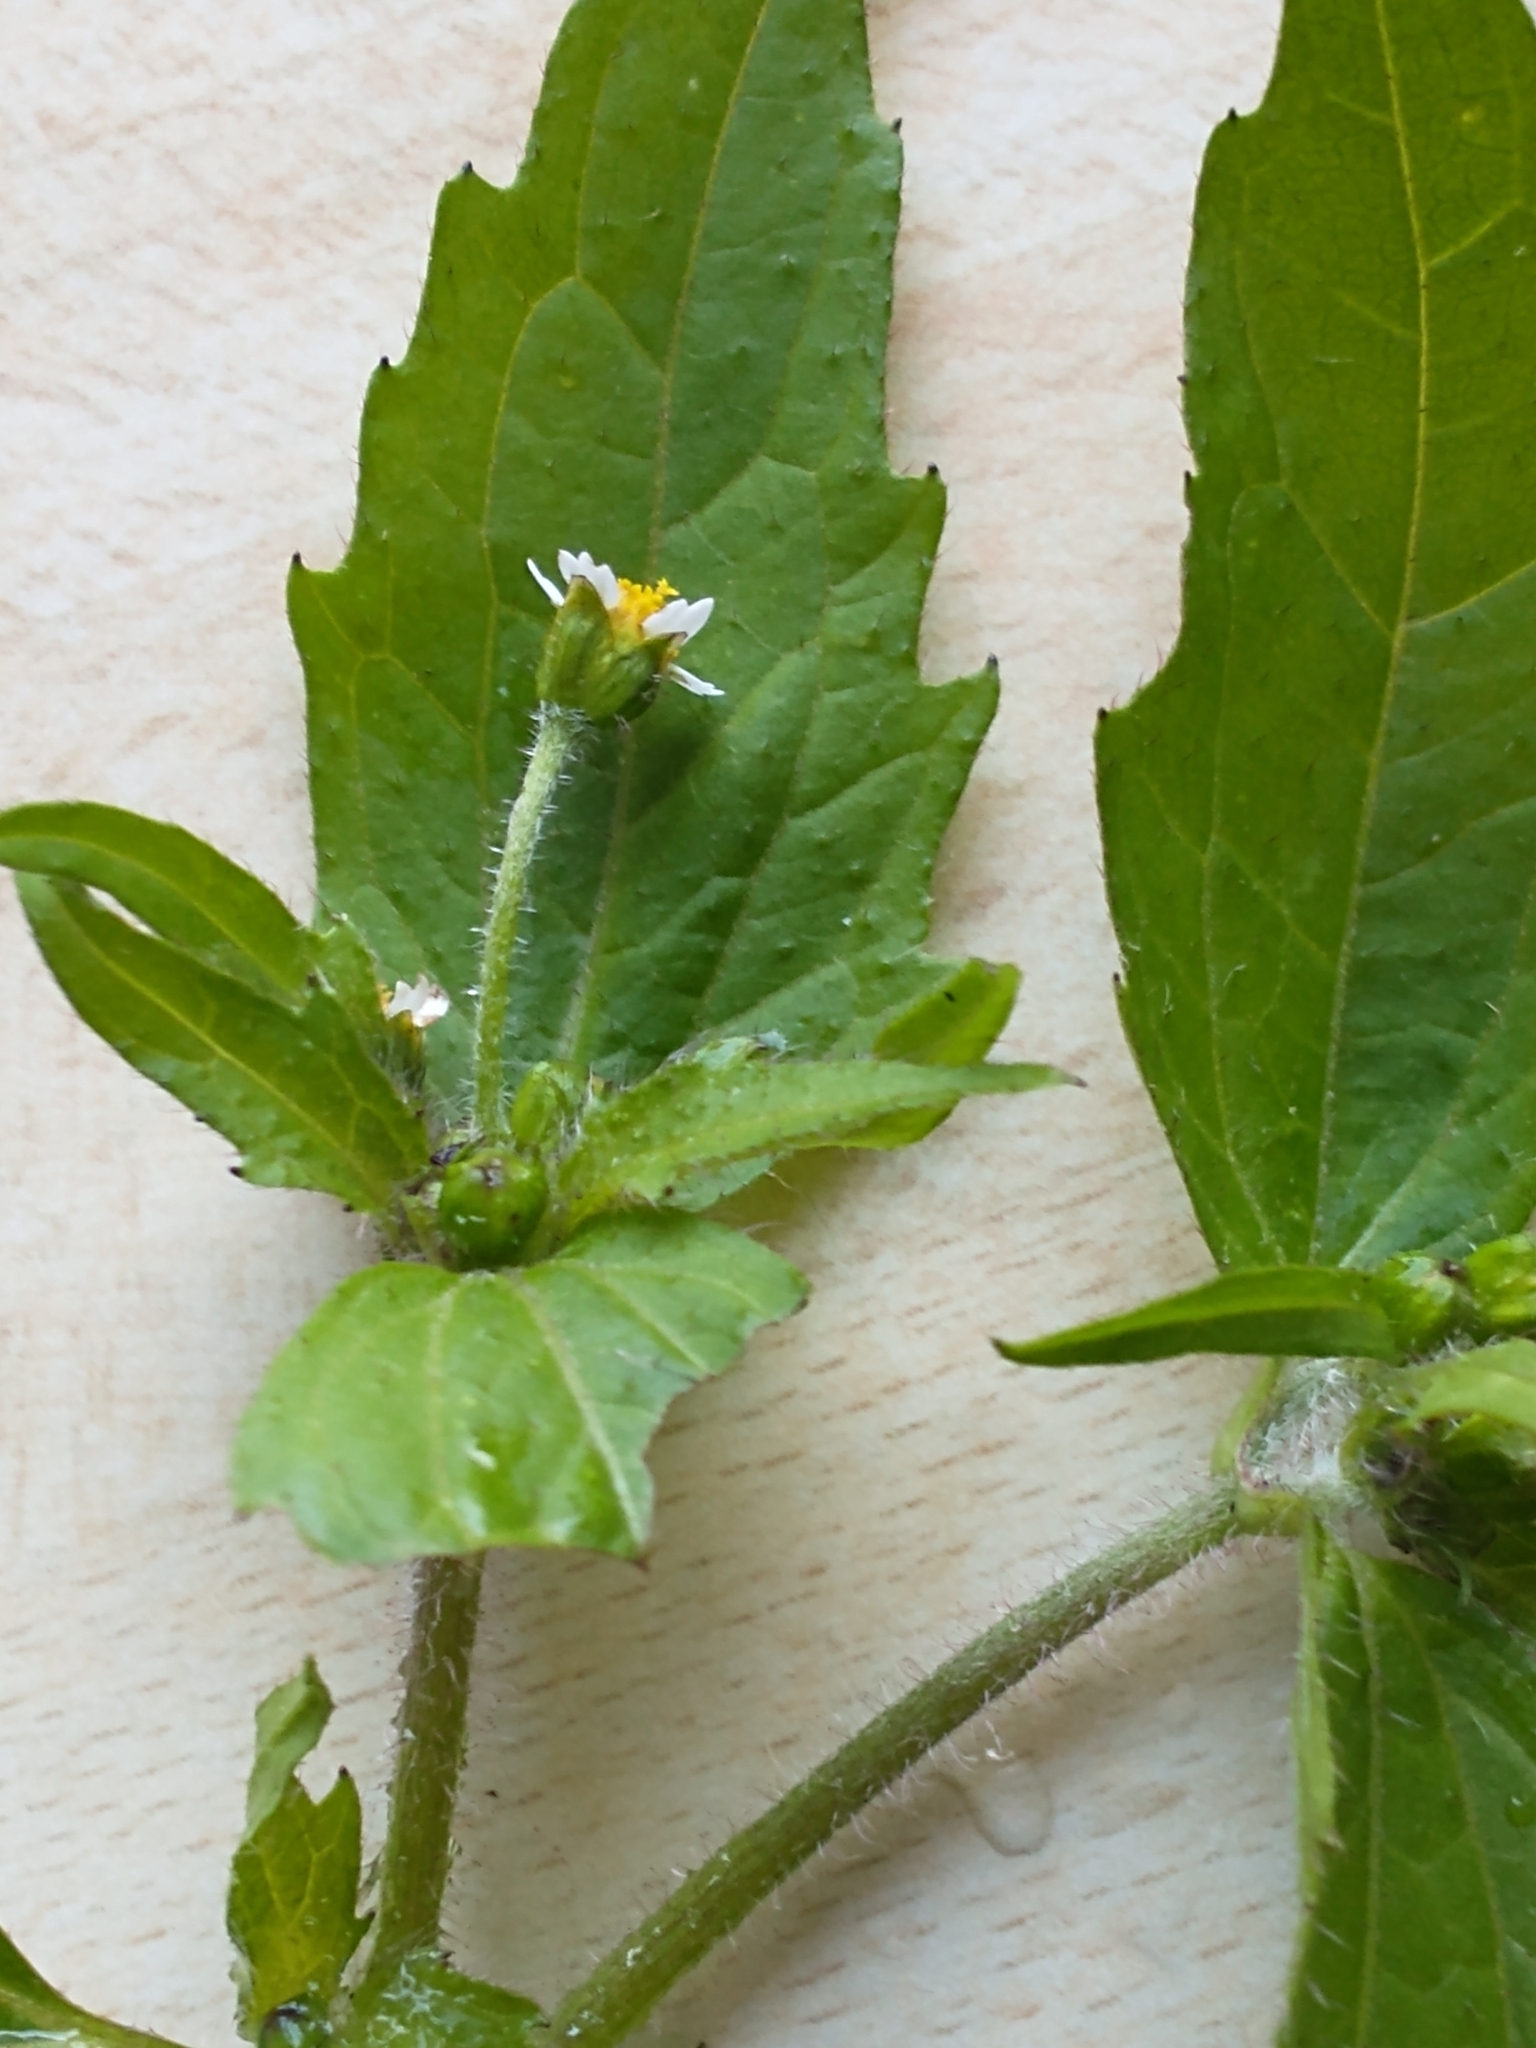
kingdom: Plantae
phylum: Tracheophyta
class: Magnoliopsida
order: Asterales
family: Asteraceae
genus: Galinsoga
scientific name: Galinsoga quadriradiata
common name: Shaggy soldier
